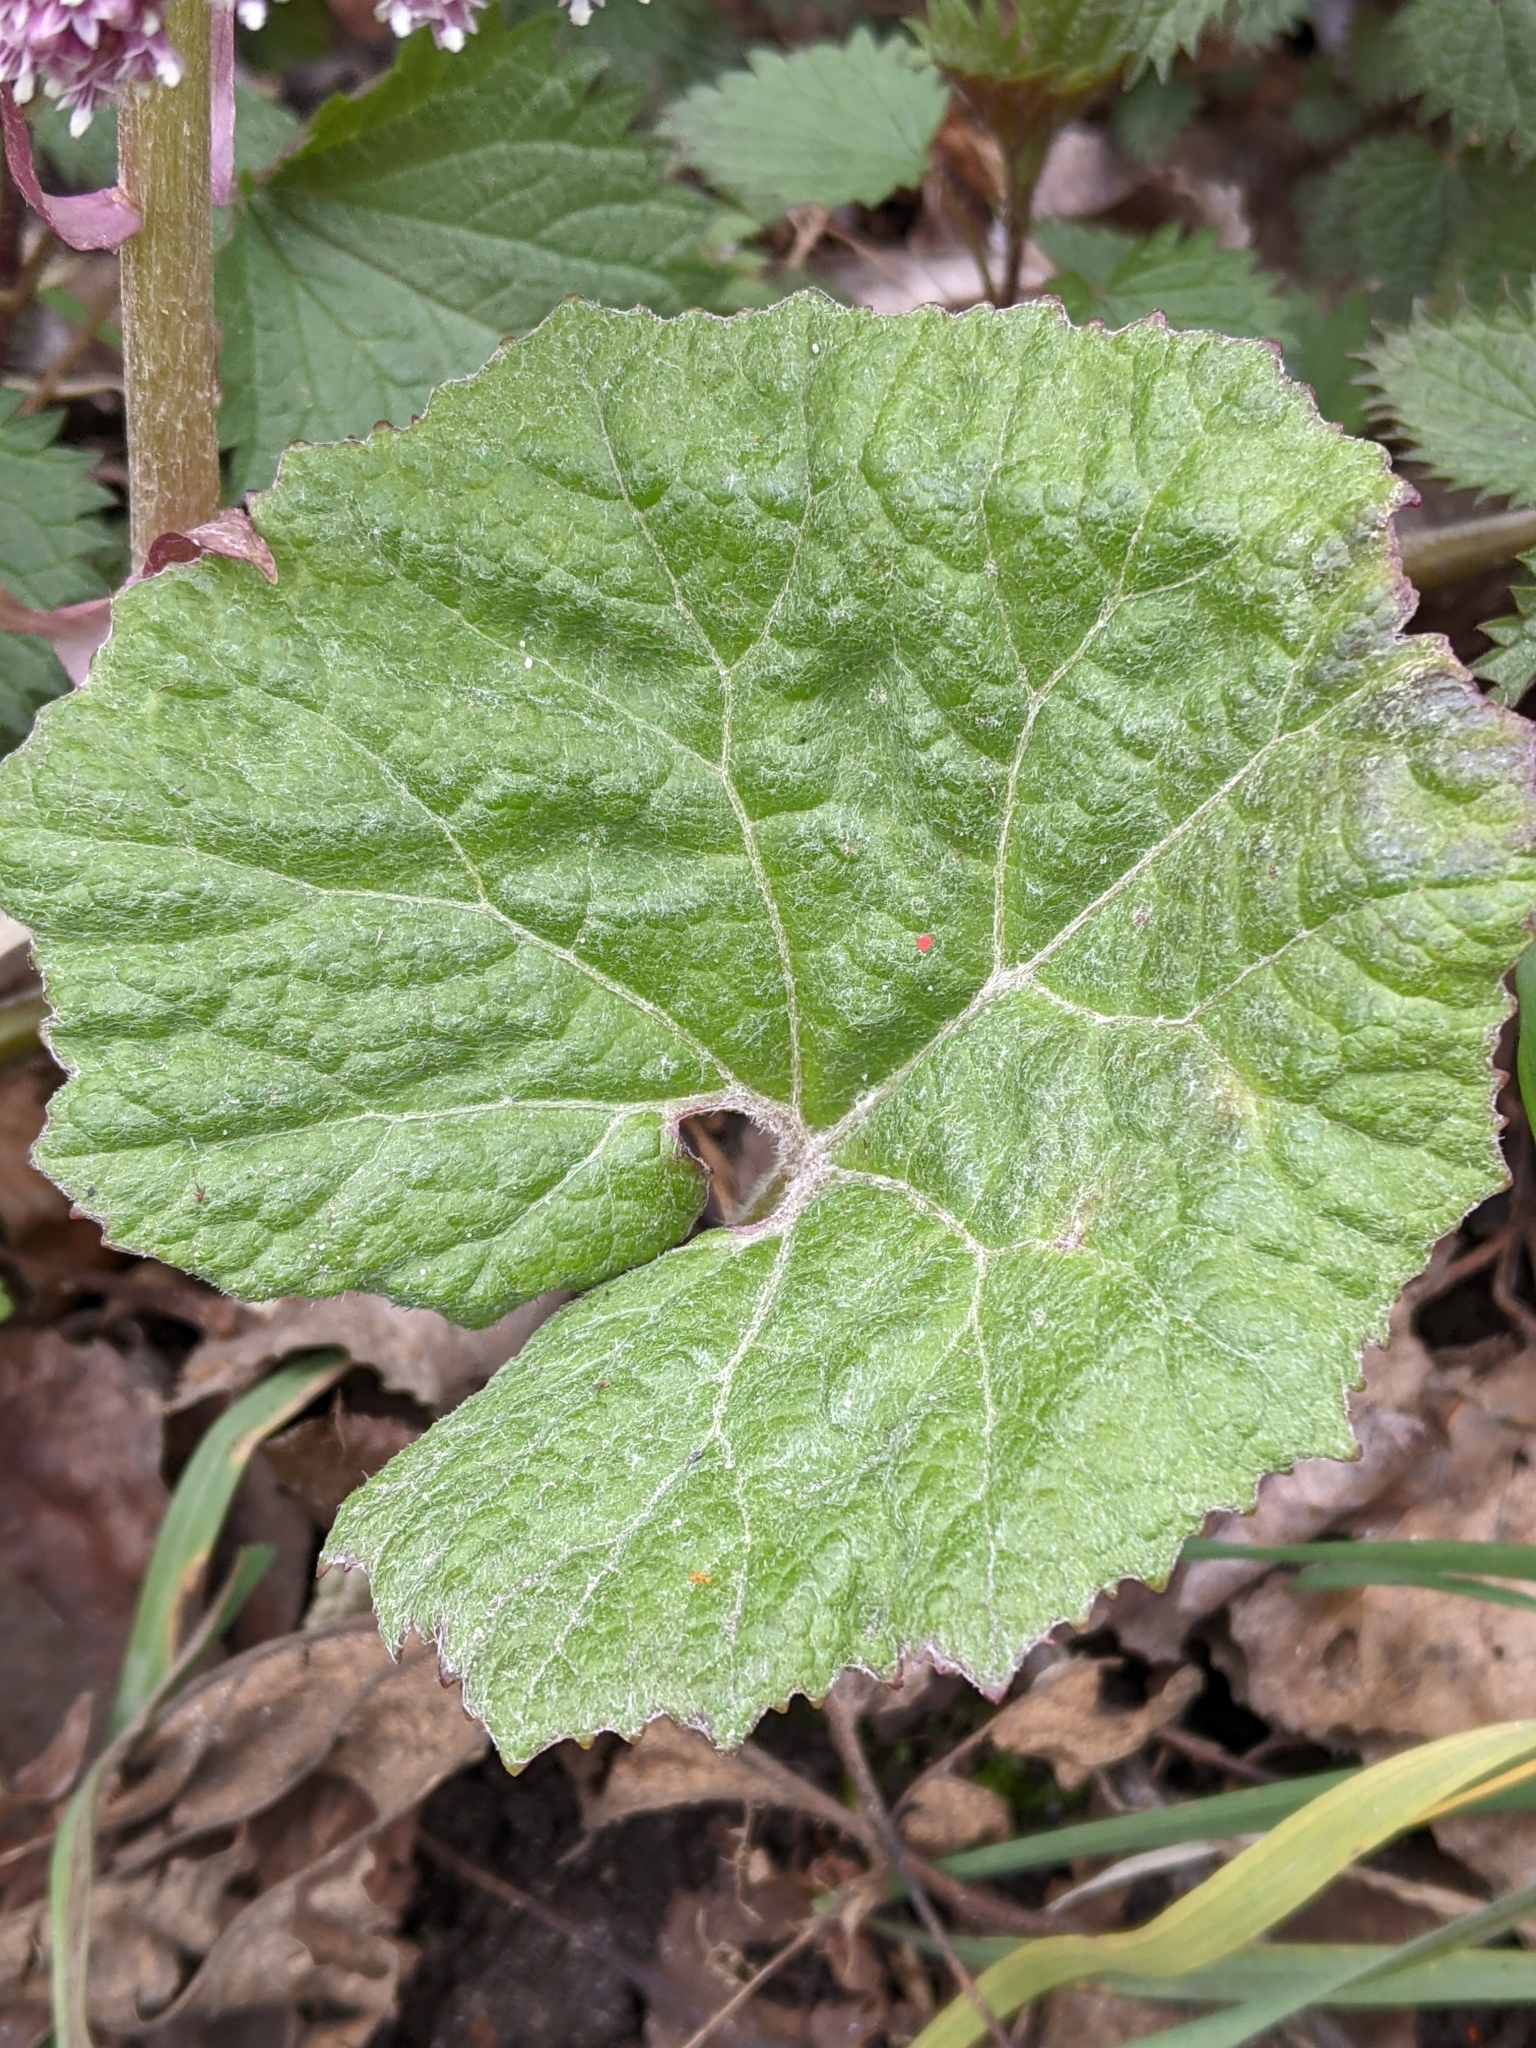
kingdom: Plantae
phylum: Tracheophyta
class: Magnoliopsida
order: Asterales
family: Asteraceae
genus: Petasites
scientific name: Petasites hybridus
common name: Butterbur
